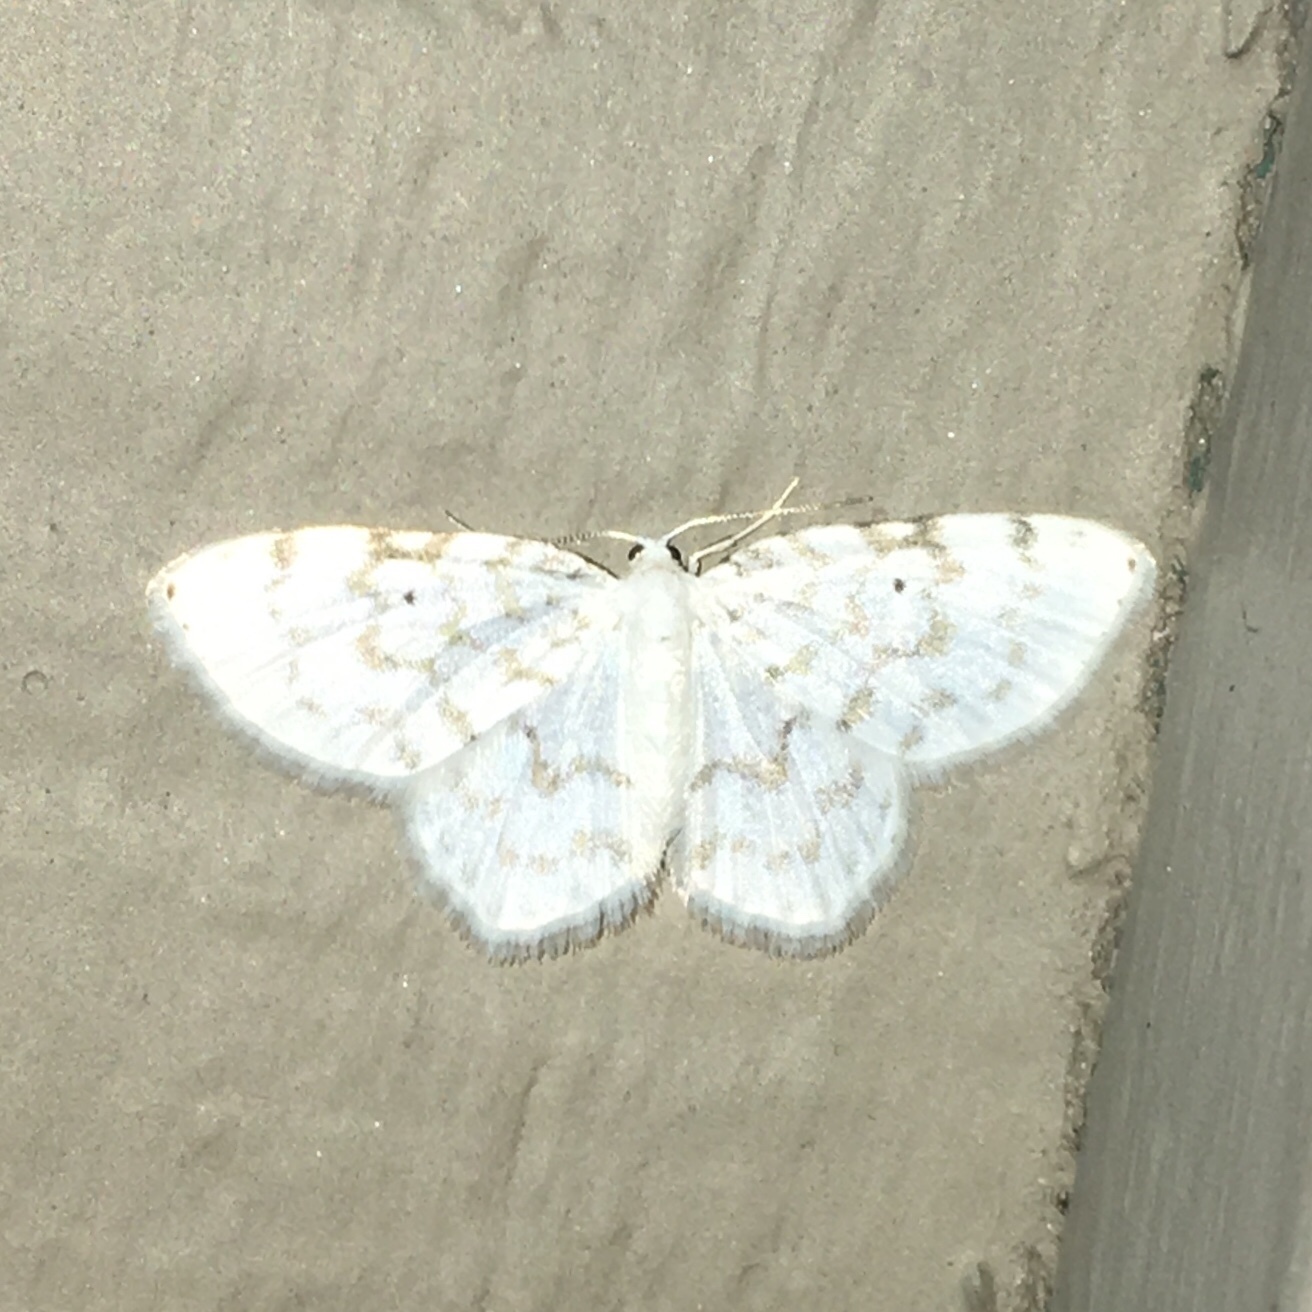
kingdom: Animalia
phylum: Arthropoda
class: Insecta
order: Lepidoptera
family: Geometridae
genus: Hydrelia
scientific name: Hydrelia albifera
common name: Fragile white carpet
